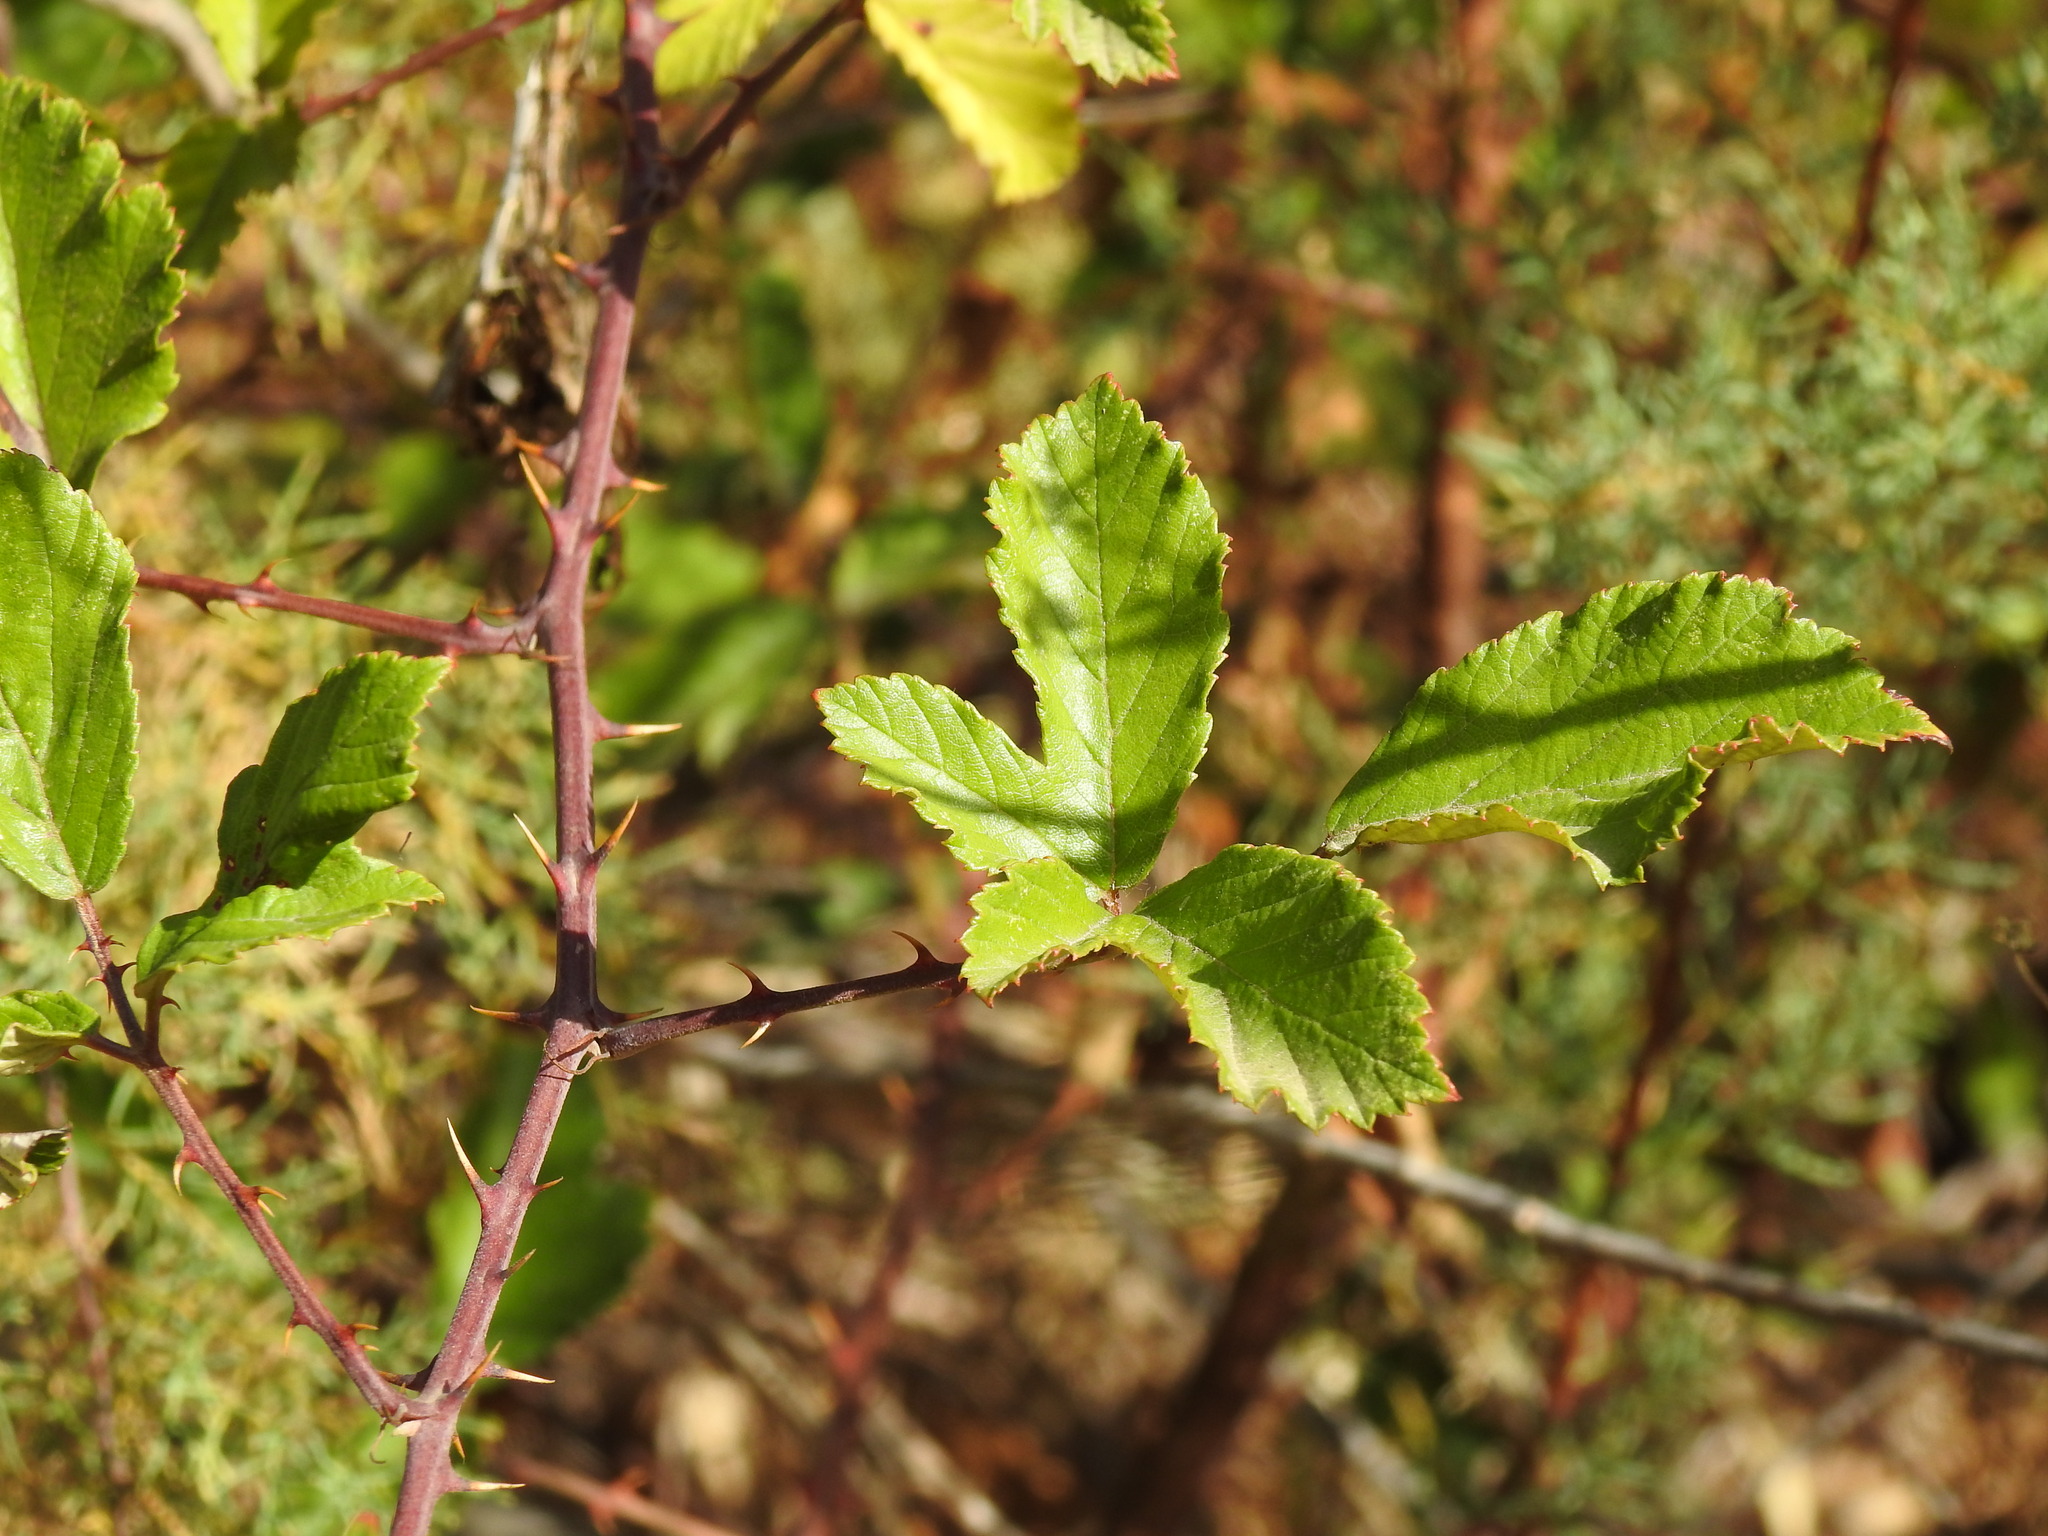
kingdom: Plantae
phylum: Tracheophyta
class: Magnoliopsida
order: Rosales
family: Rosaceae
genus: Rubus
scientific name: Rubus ulmifolius
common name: Elmleaf blackberry
